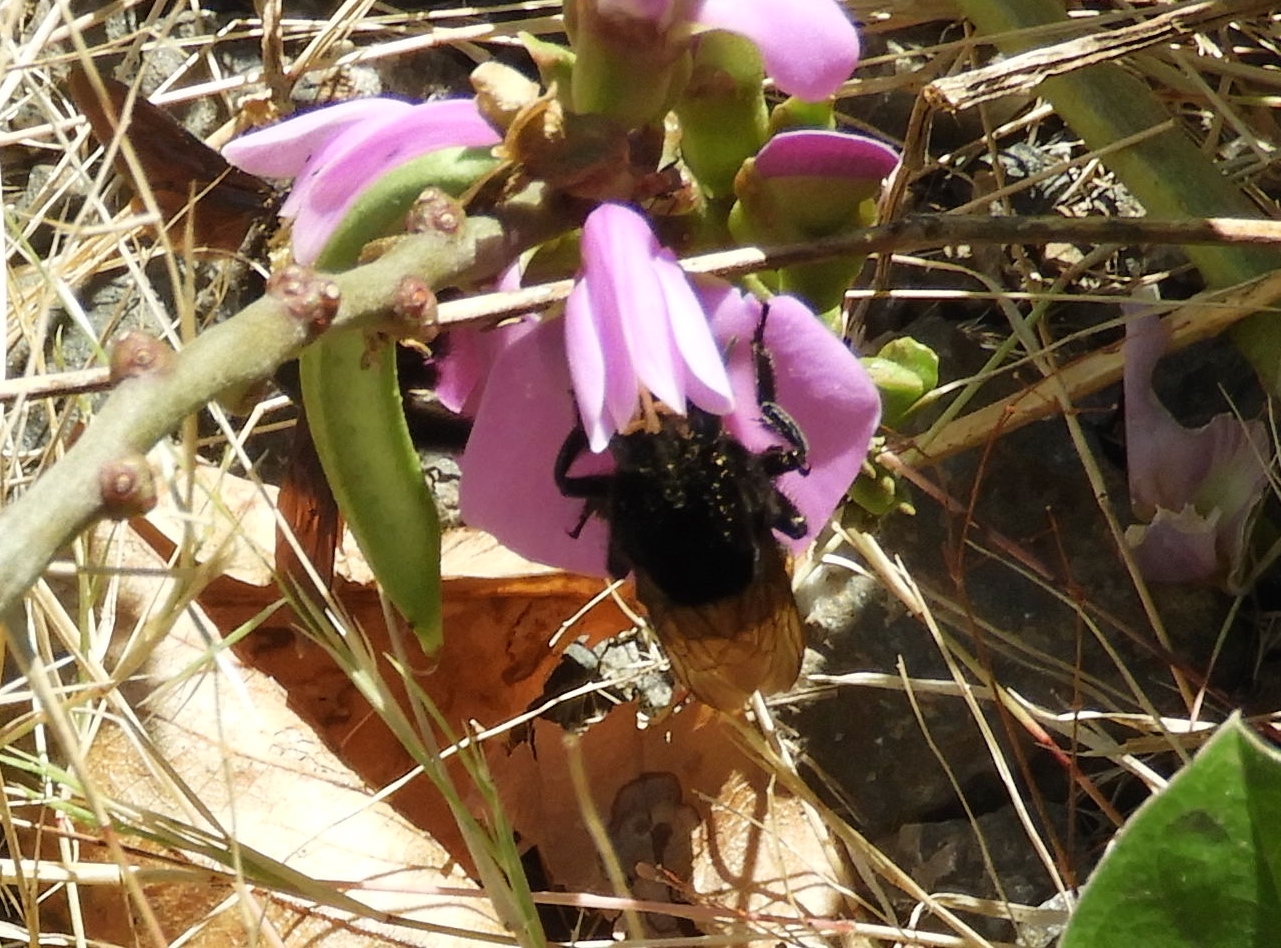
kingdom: Animalia
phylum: Arthropoda
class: Insecta
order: Hymenoptera
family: Apidae
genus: Eulaema
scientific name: Eulaema polychroma
